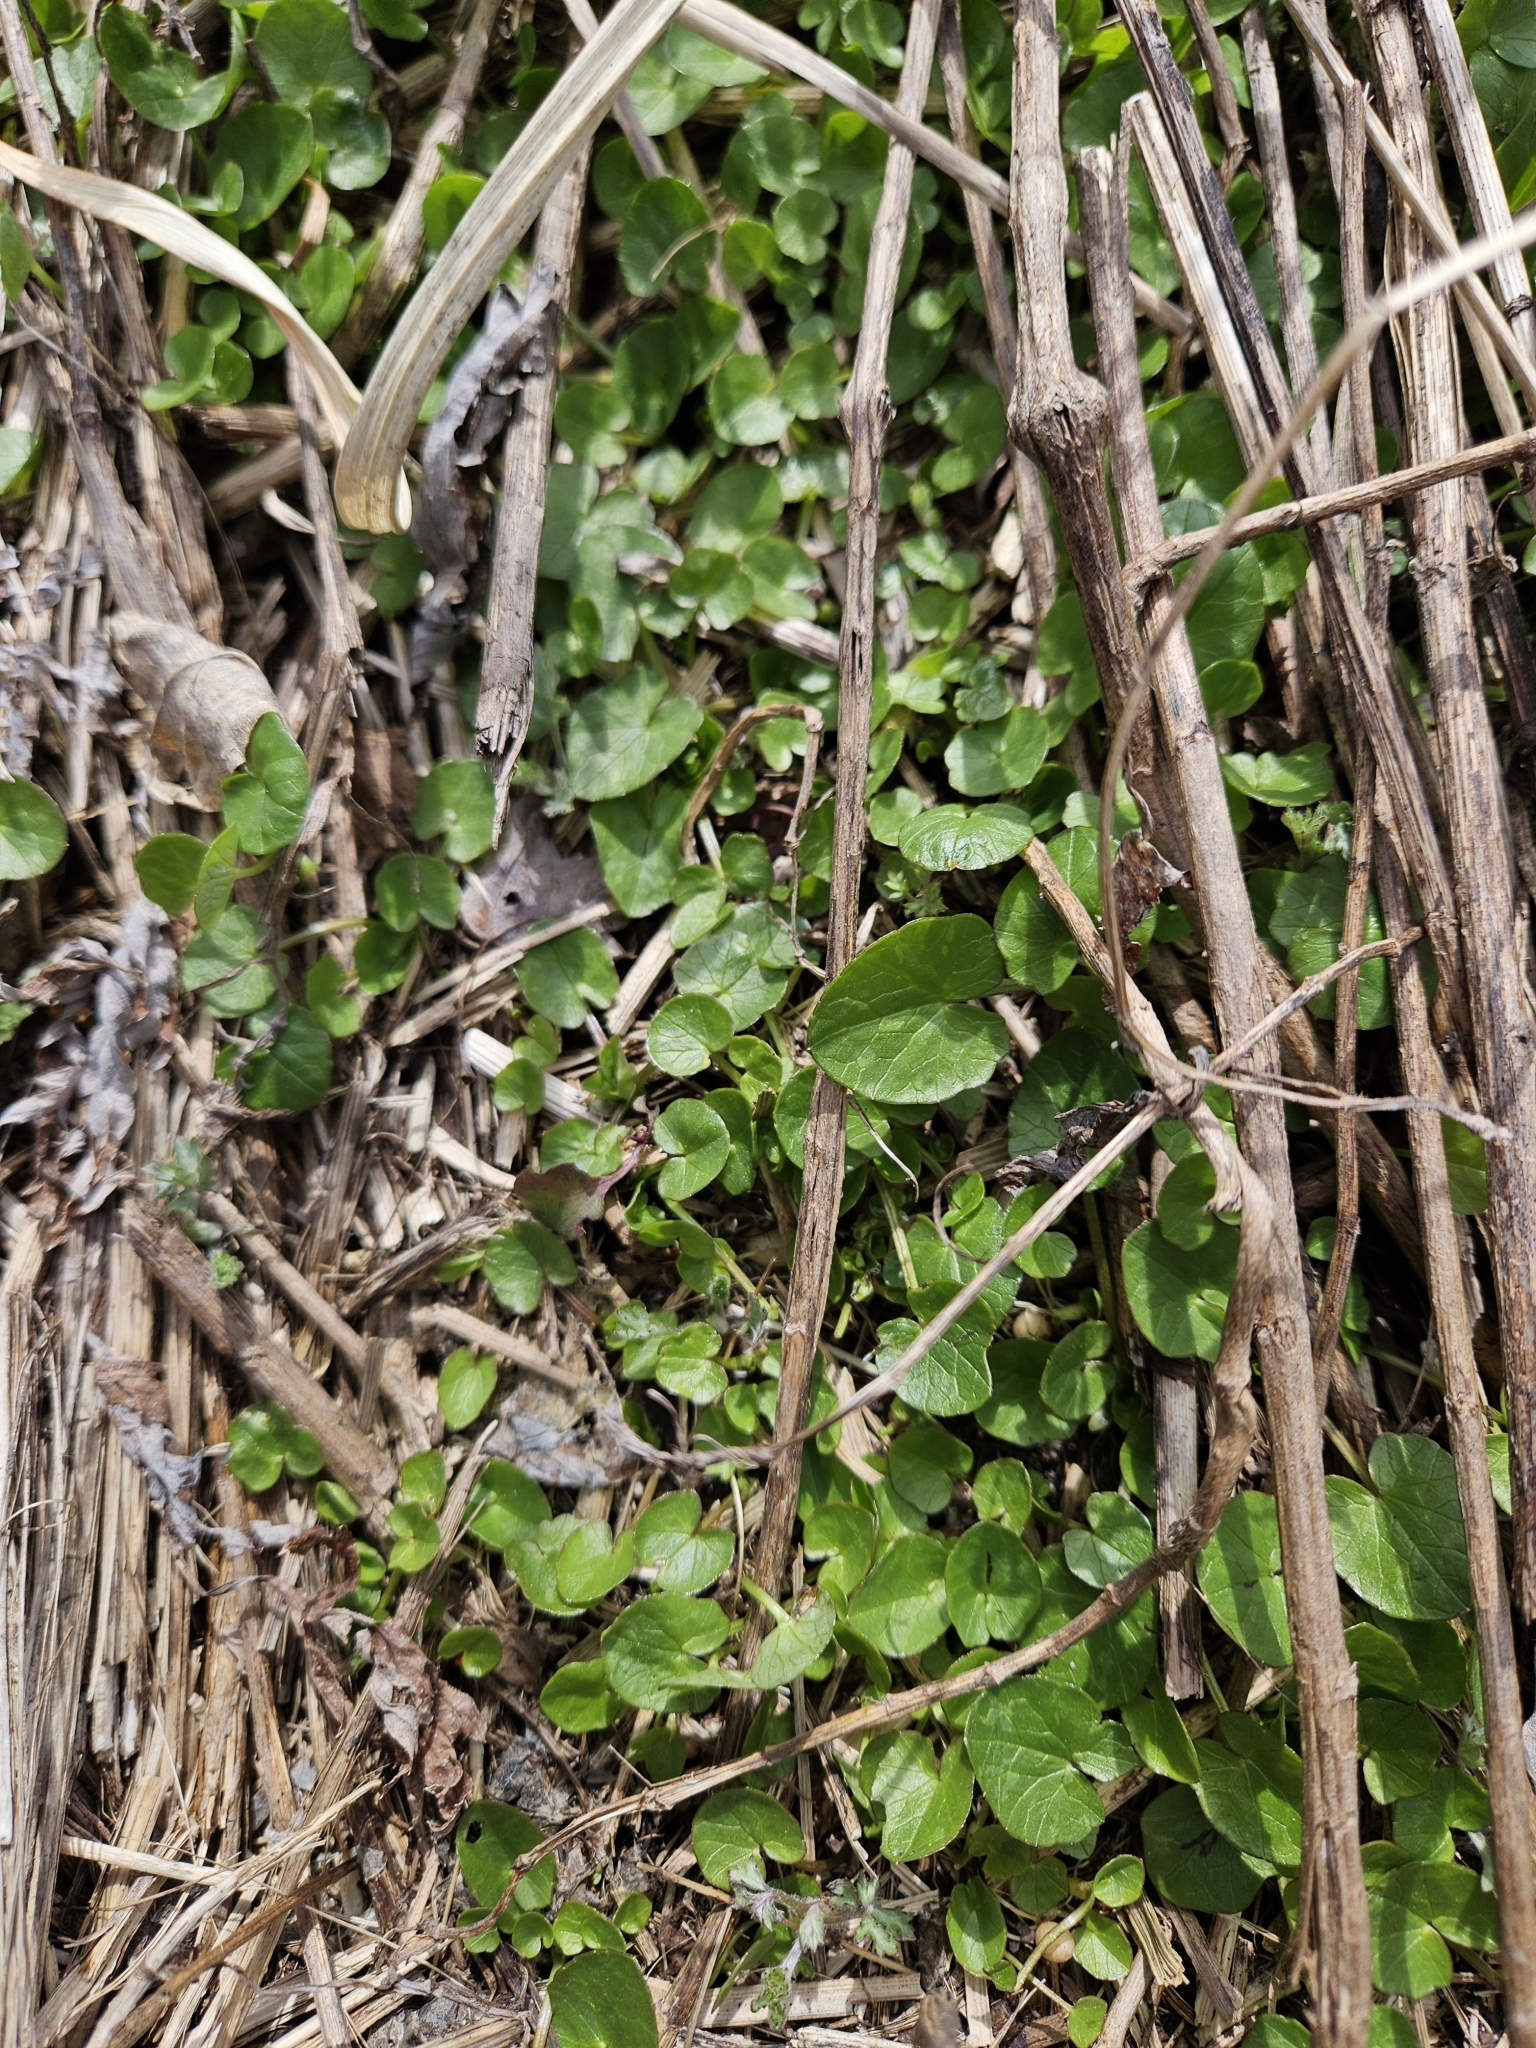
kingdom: Plantae
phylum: Tracheophyta
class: Magnoliopsida
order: Ranunculales
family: Ranunculaceae
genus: Ficaria
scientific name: Ficaria verna
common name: Lesser celandine
